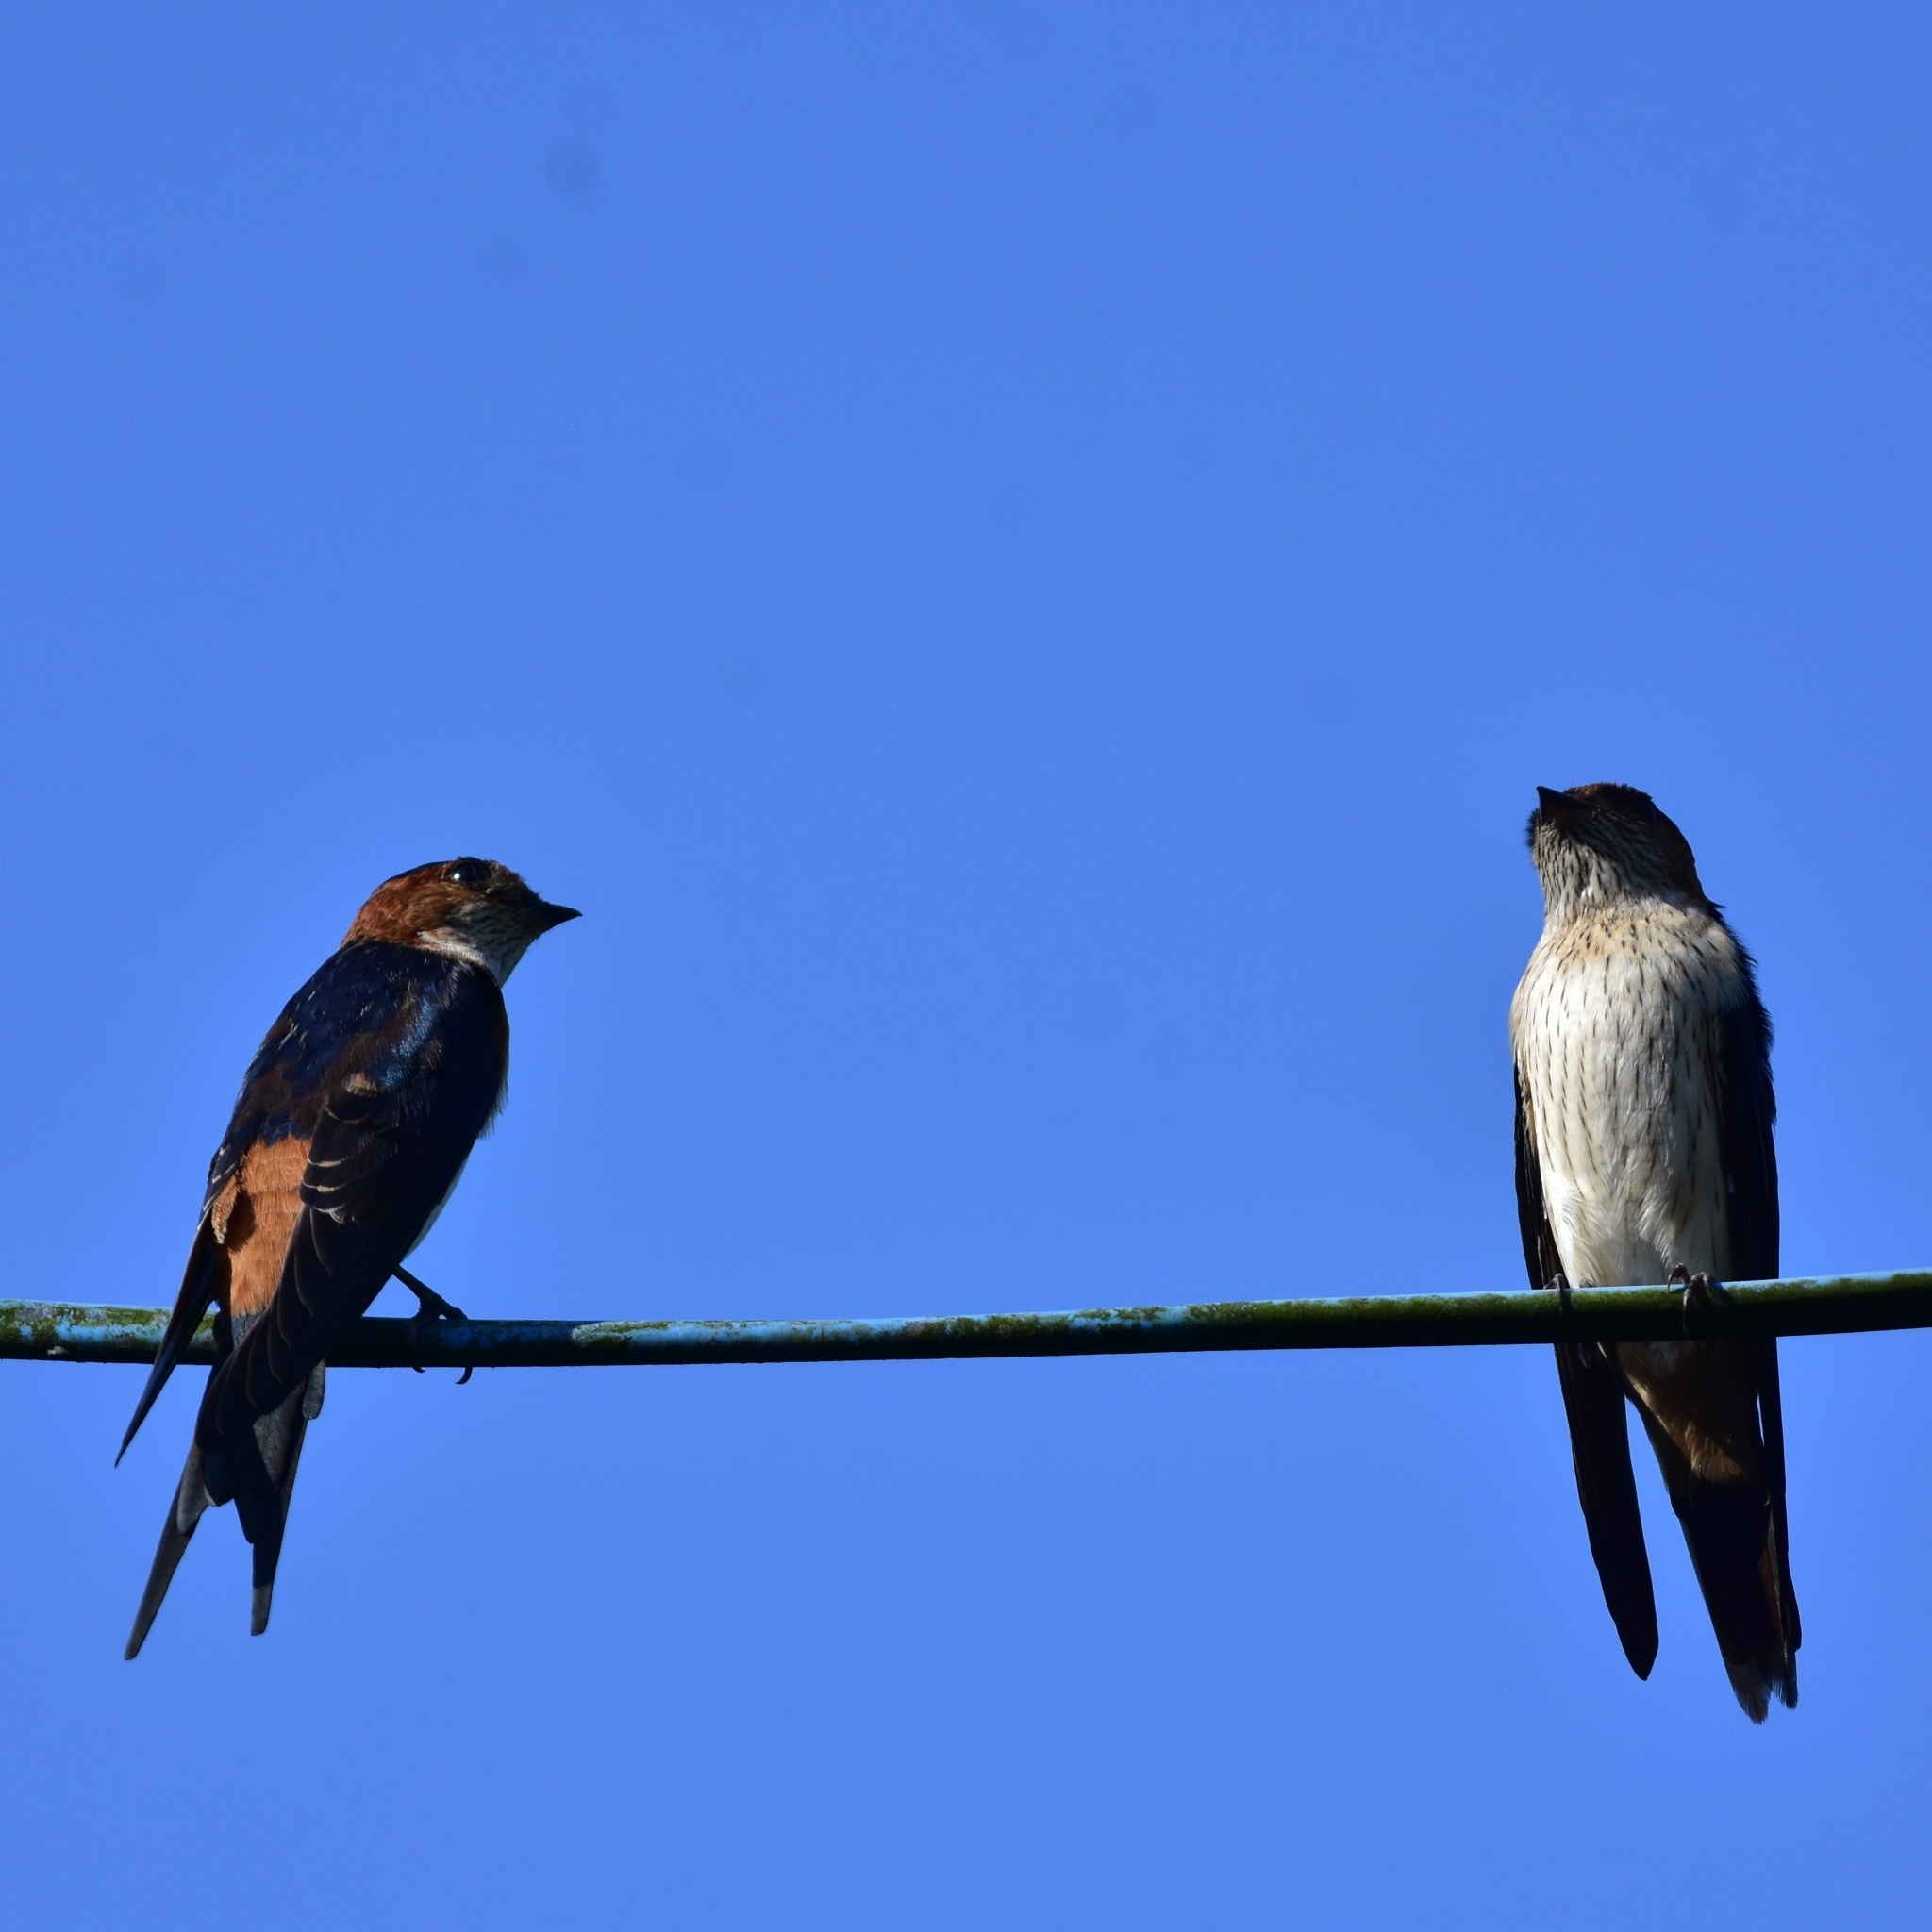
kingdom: Animalia
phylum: Chordata
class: Aves
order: Passeriformes
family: Hirundinidae
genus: Cecropis
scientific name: Cecropis daurica
